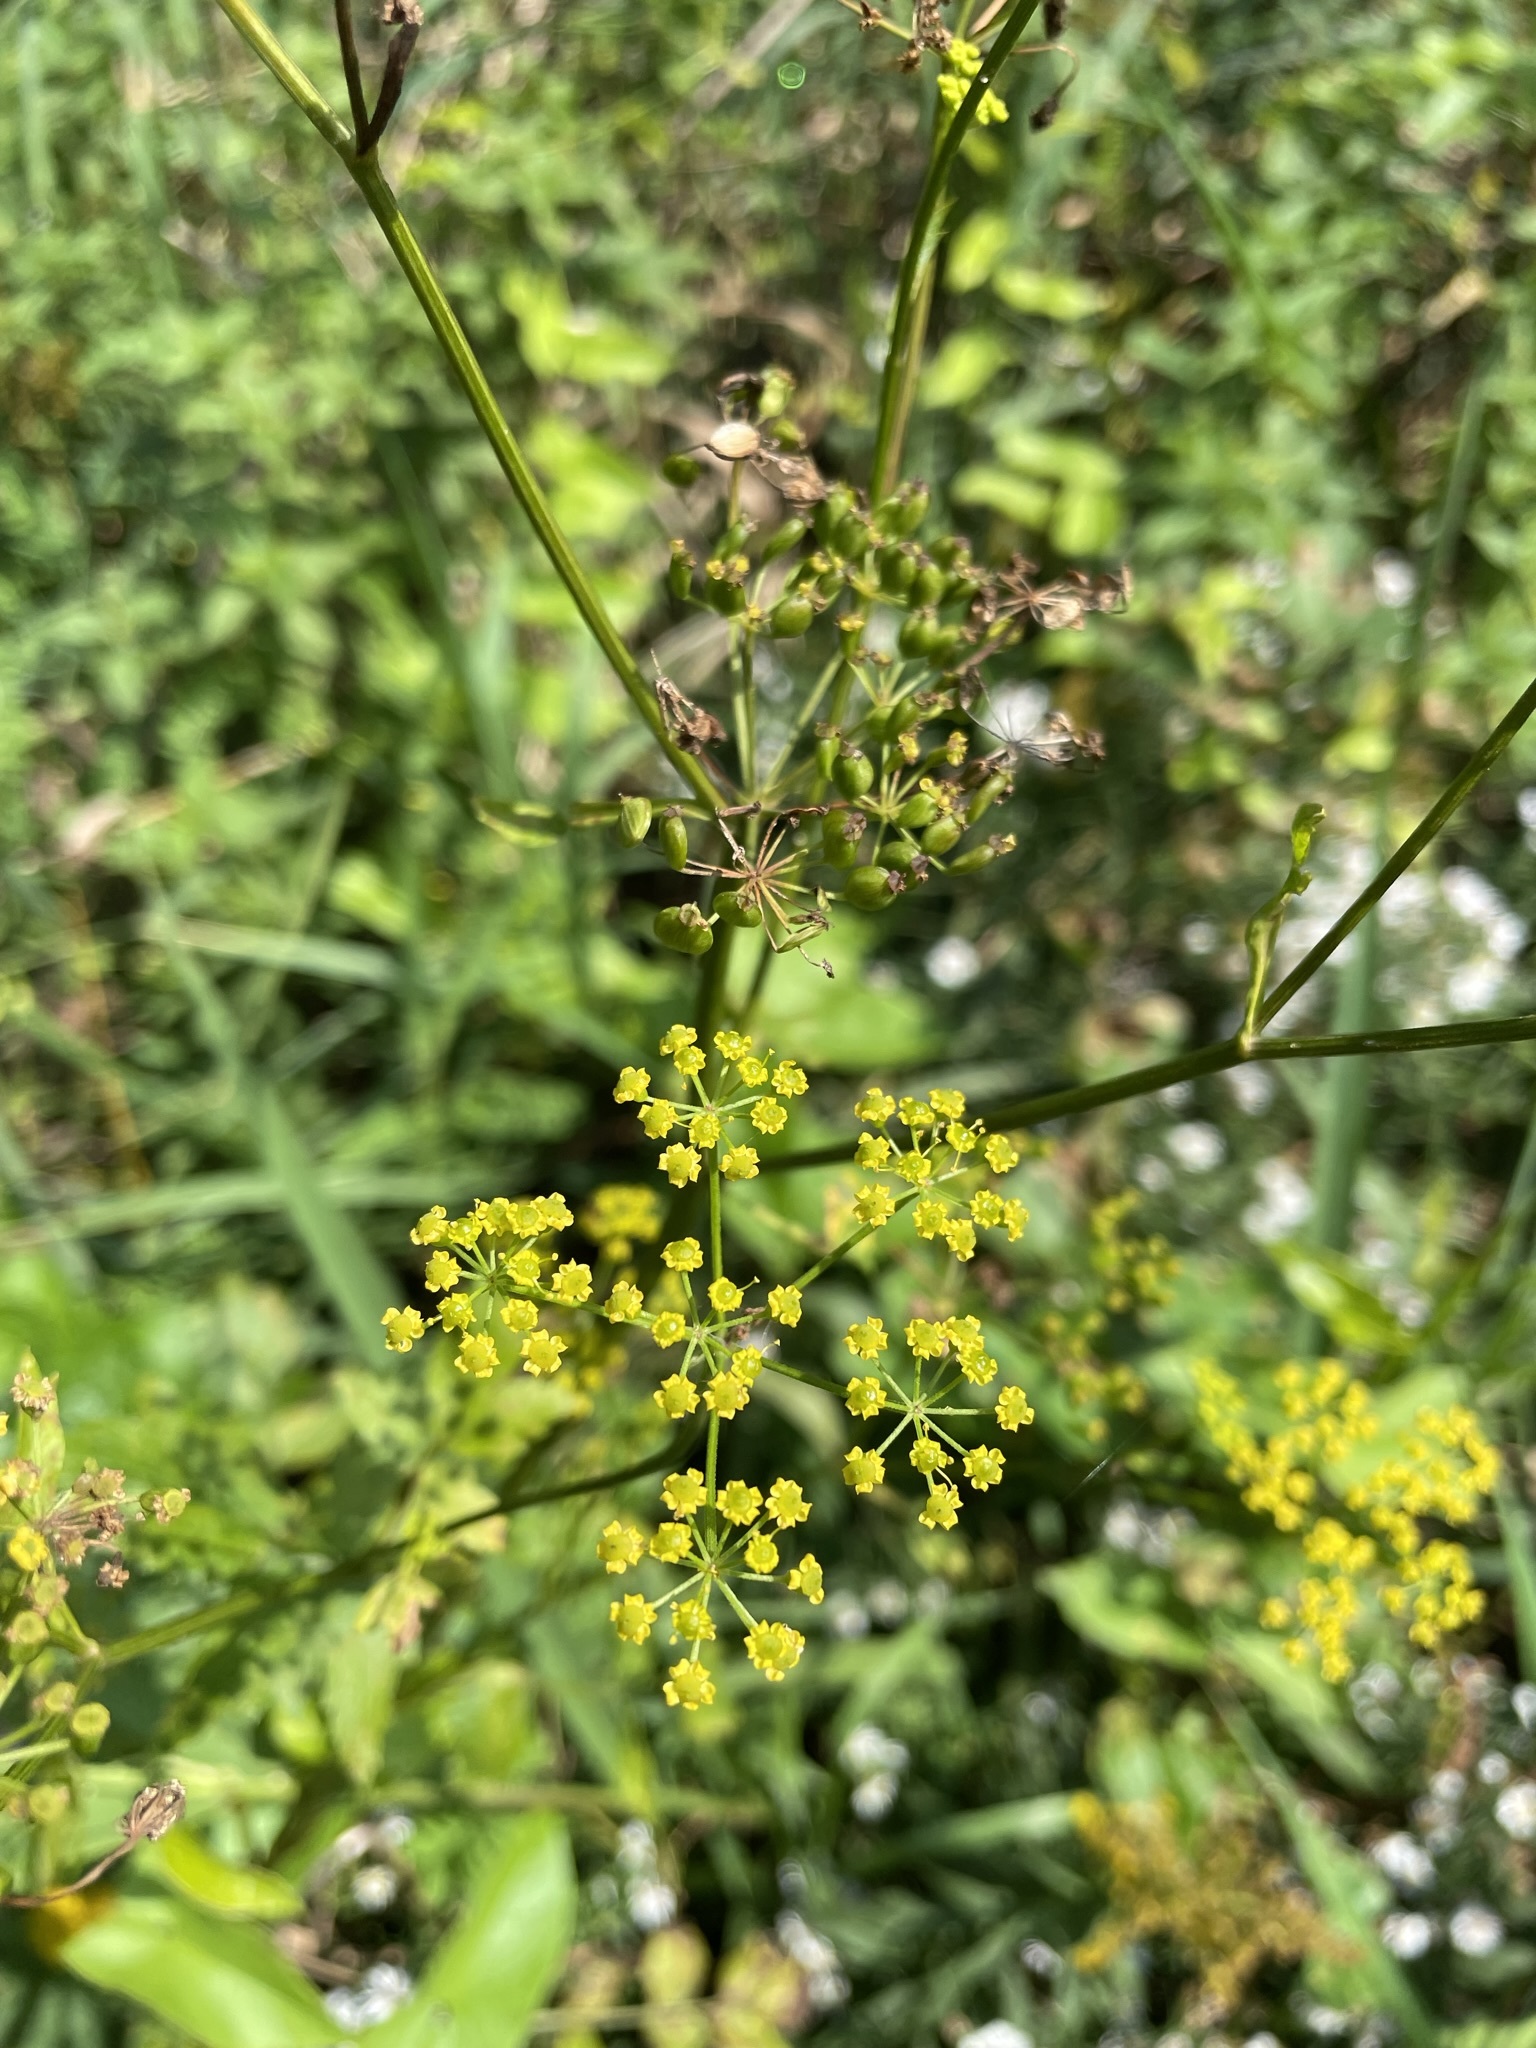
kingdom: Plantae
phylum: Tracheophyta
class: Magnoliopsida
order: Apiales
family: Apiaceae
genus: Pastinaca
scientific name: Pastinaca sativa
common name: Wild parsnip
